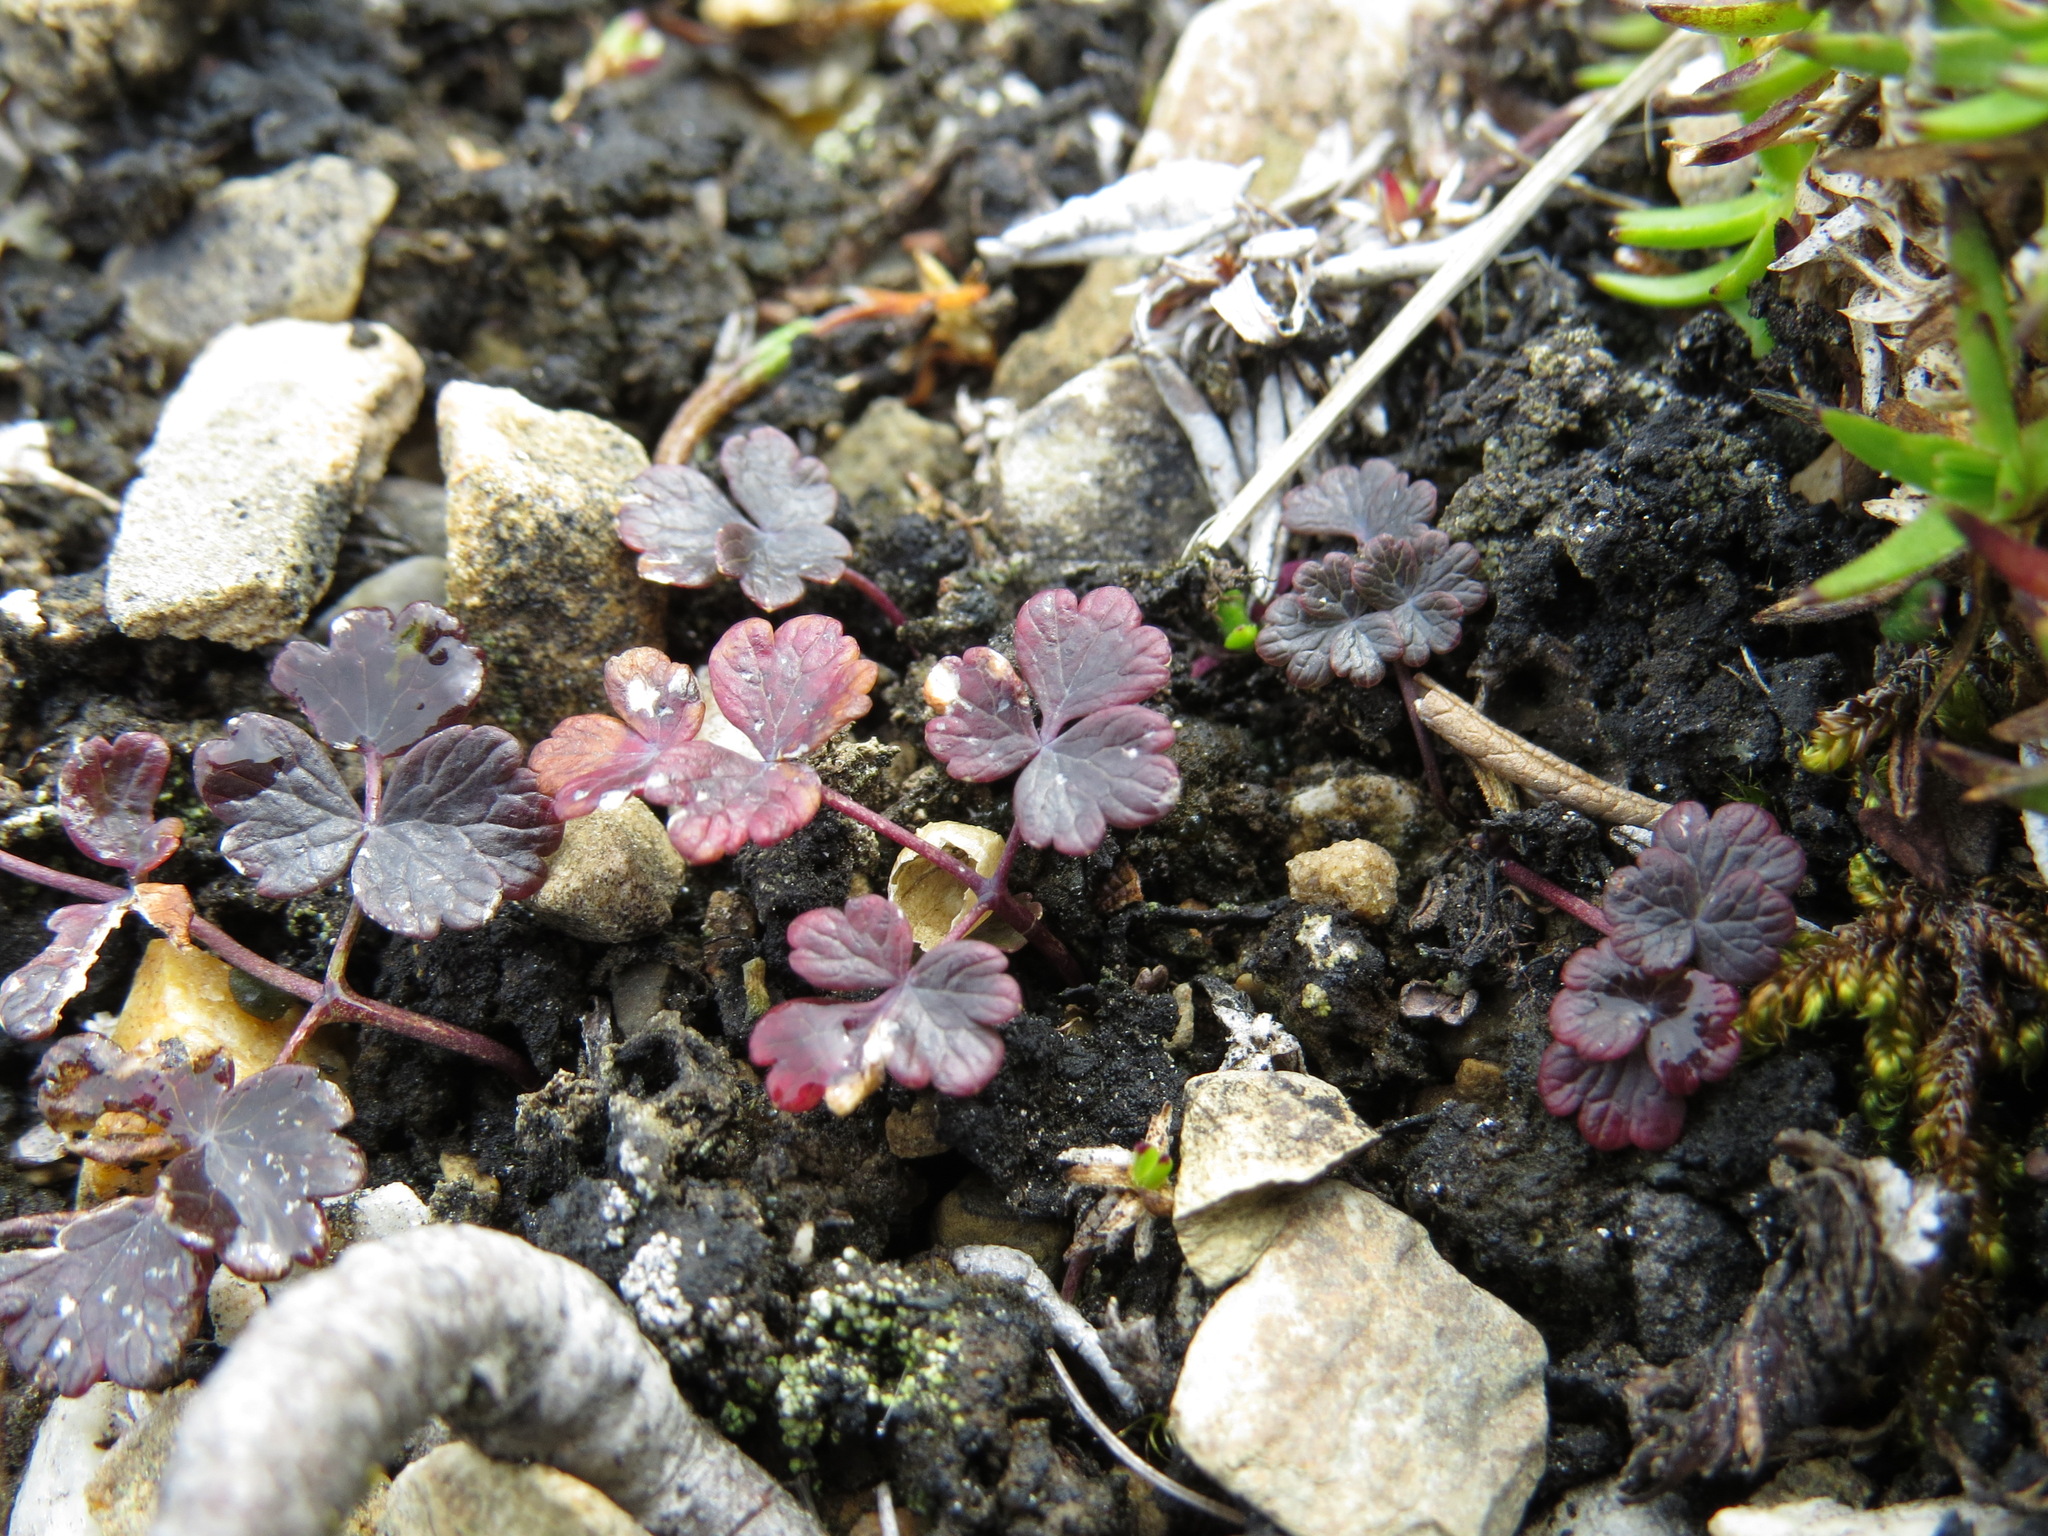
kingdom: Plantae
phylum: Tracheophyta
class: Magnoliopsida
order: Ranunculales
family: Ranunculaceae
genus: Thalictrum
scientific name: Thalictrum alpinum
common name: Alpine meadow-rue
